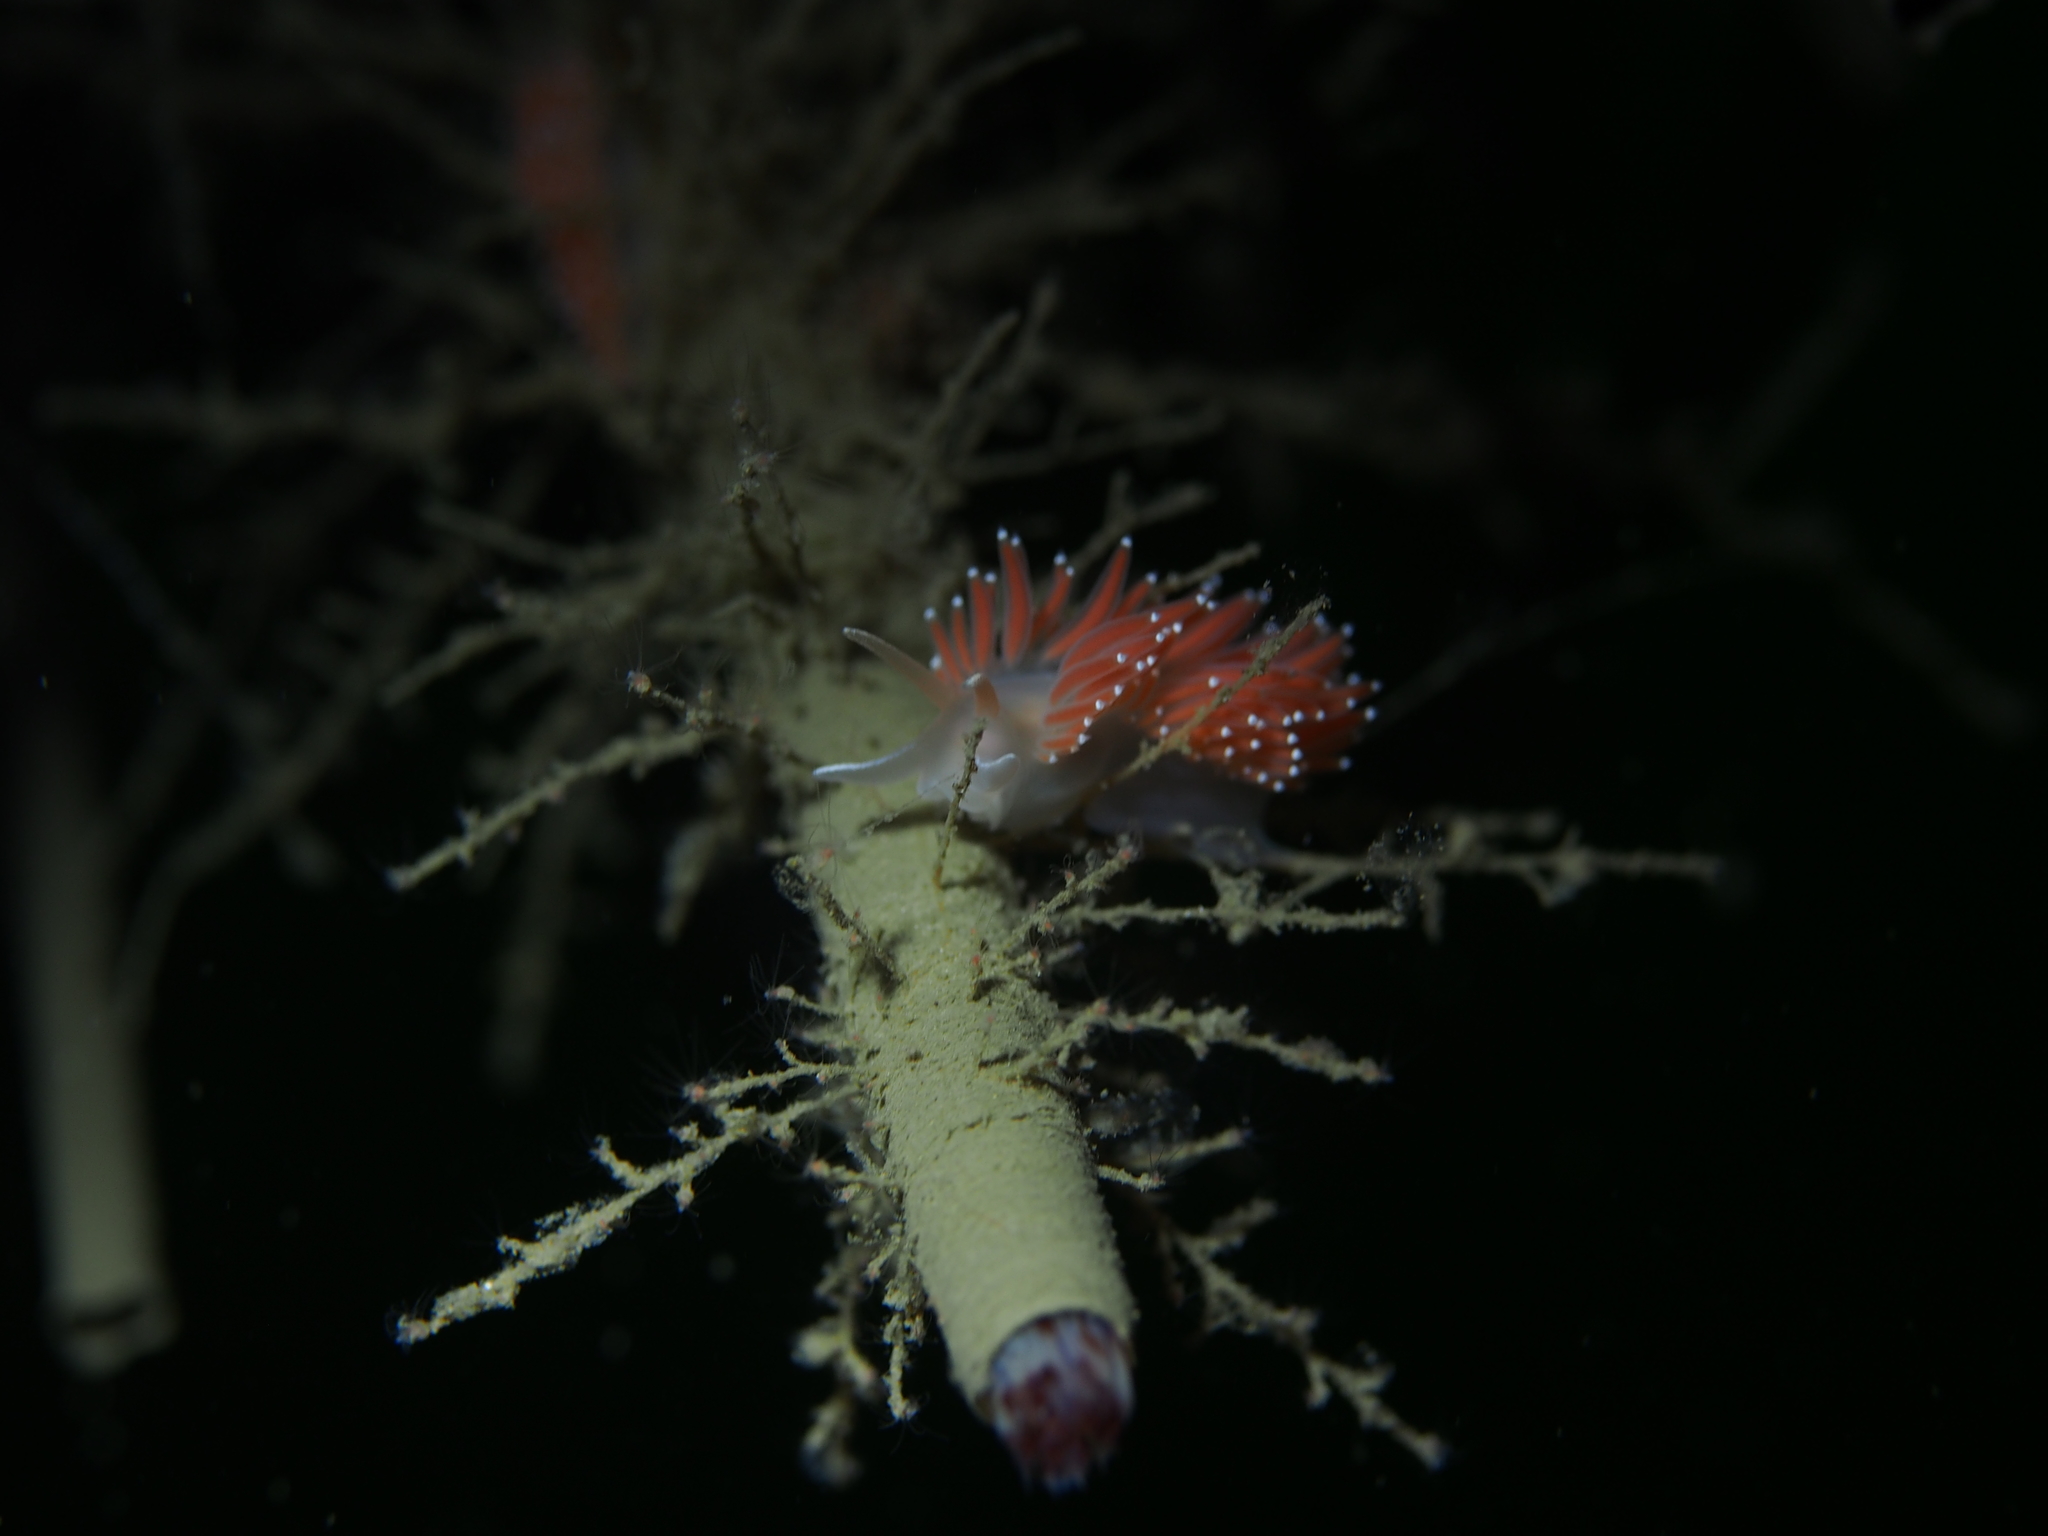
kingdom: Animalia
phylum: Mollusca
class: Gastropoda
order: Nudibranchia
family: Coryphellidae
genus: Coryphella
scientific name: Coryphella verrucosa
